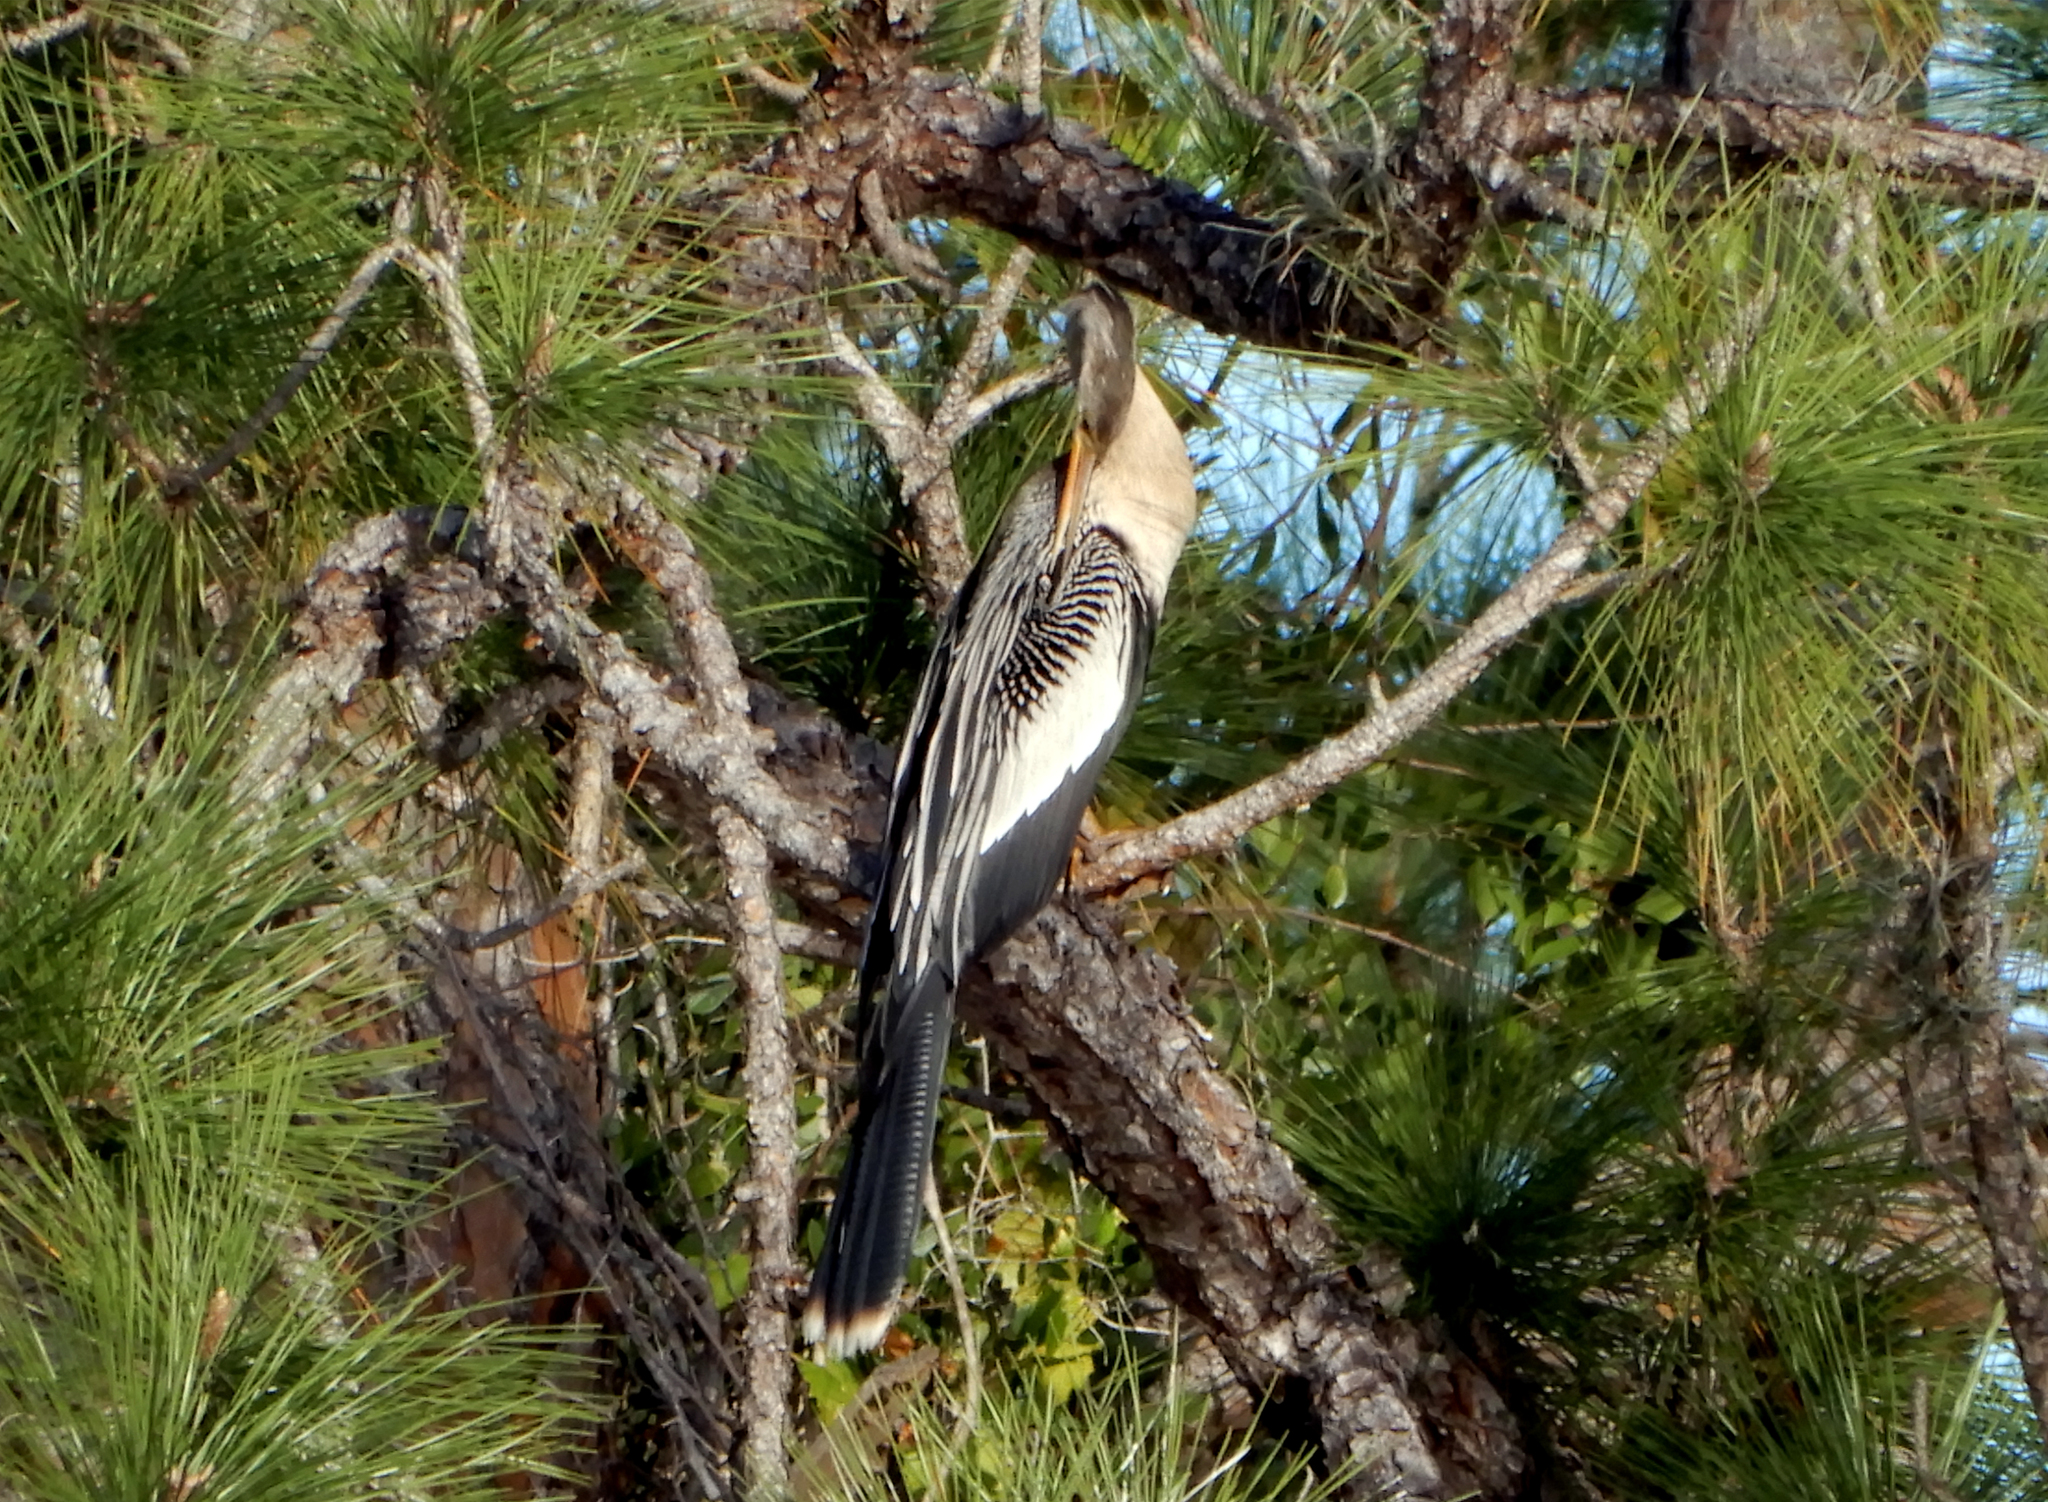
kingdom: Animalia
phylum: Chordata
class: Aves
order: Suliformes
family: Anhingidae
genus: Anhinga
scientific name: Anhinga anhinga
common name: Anhinga
